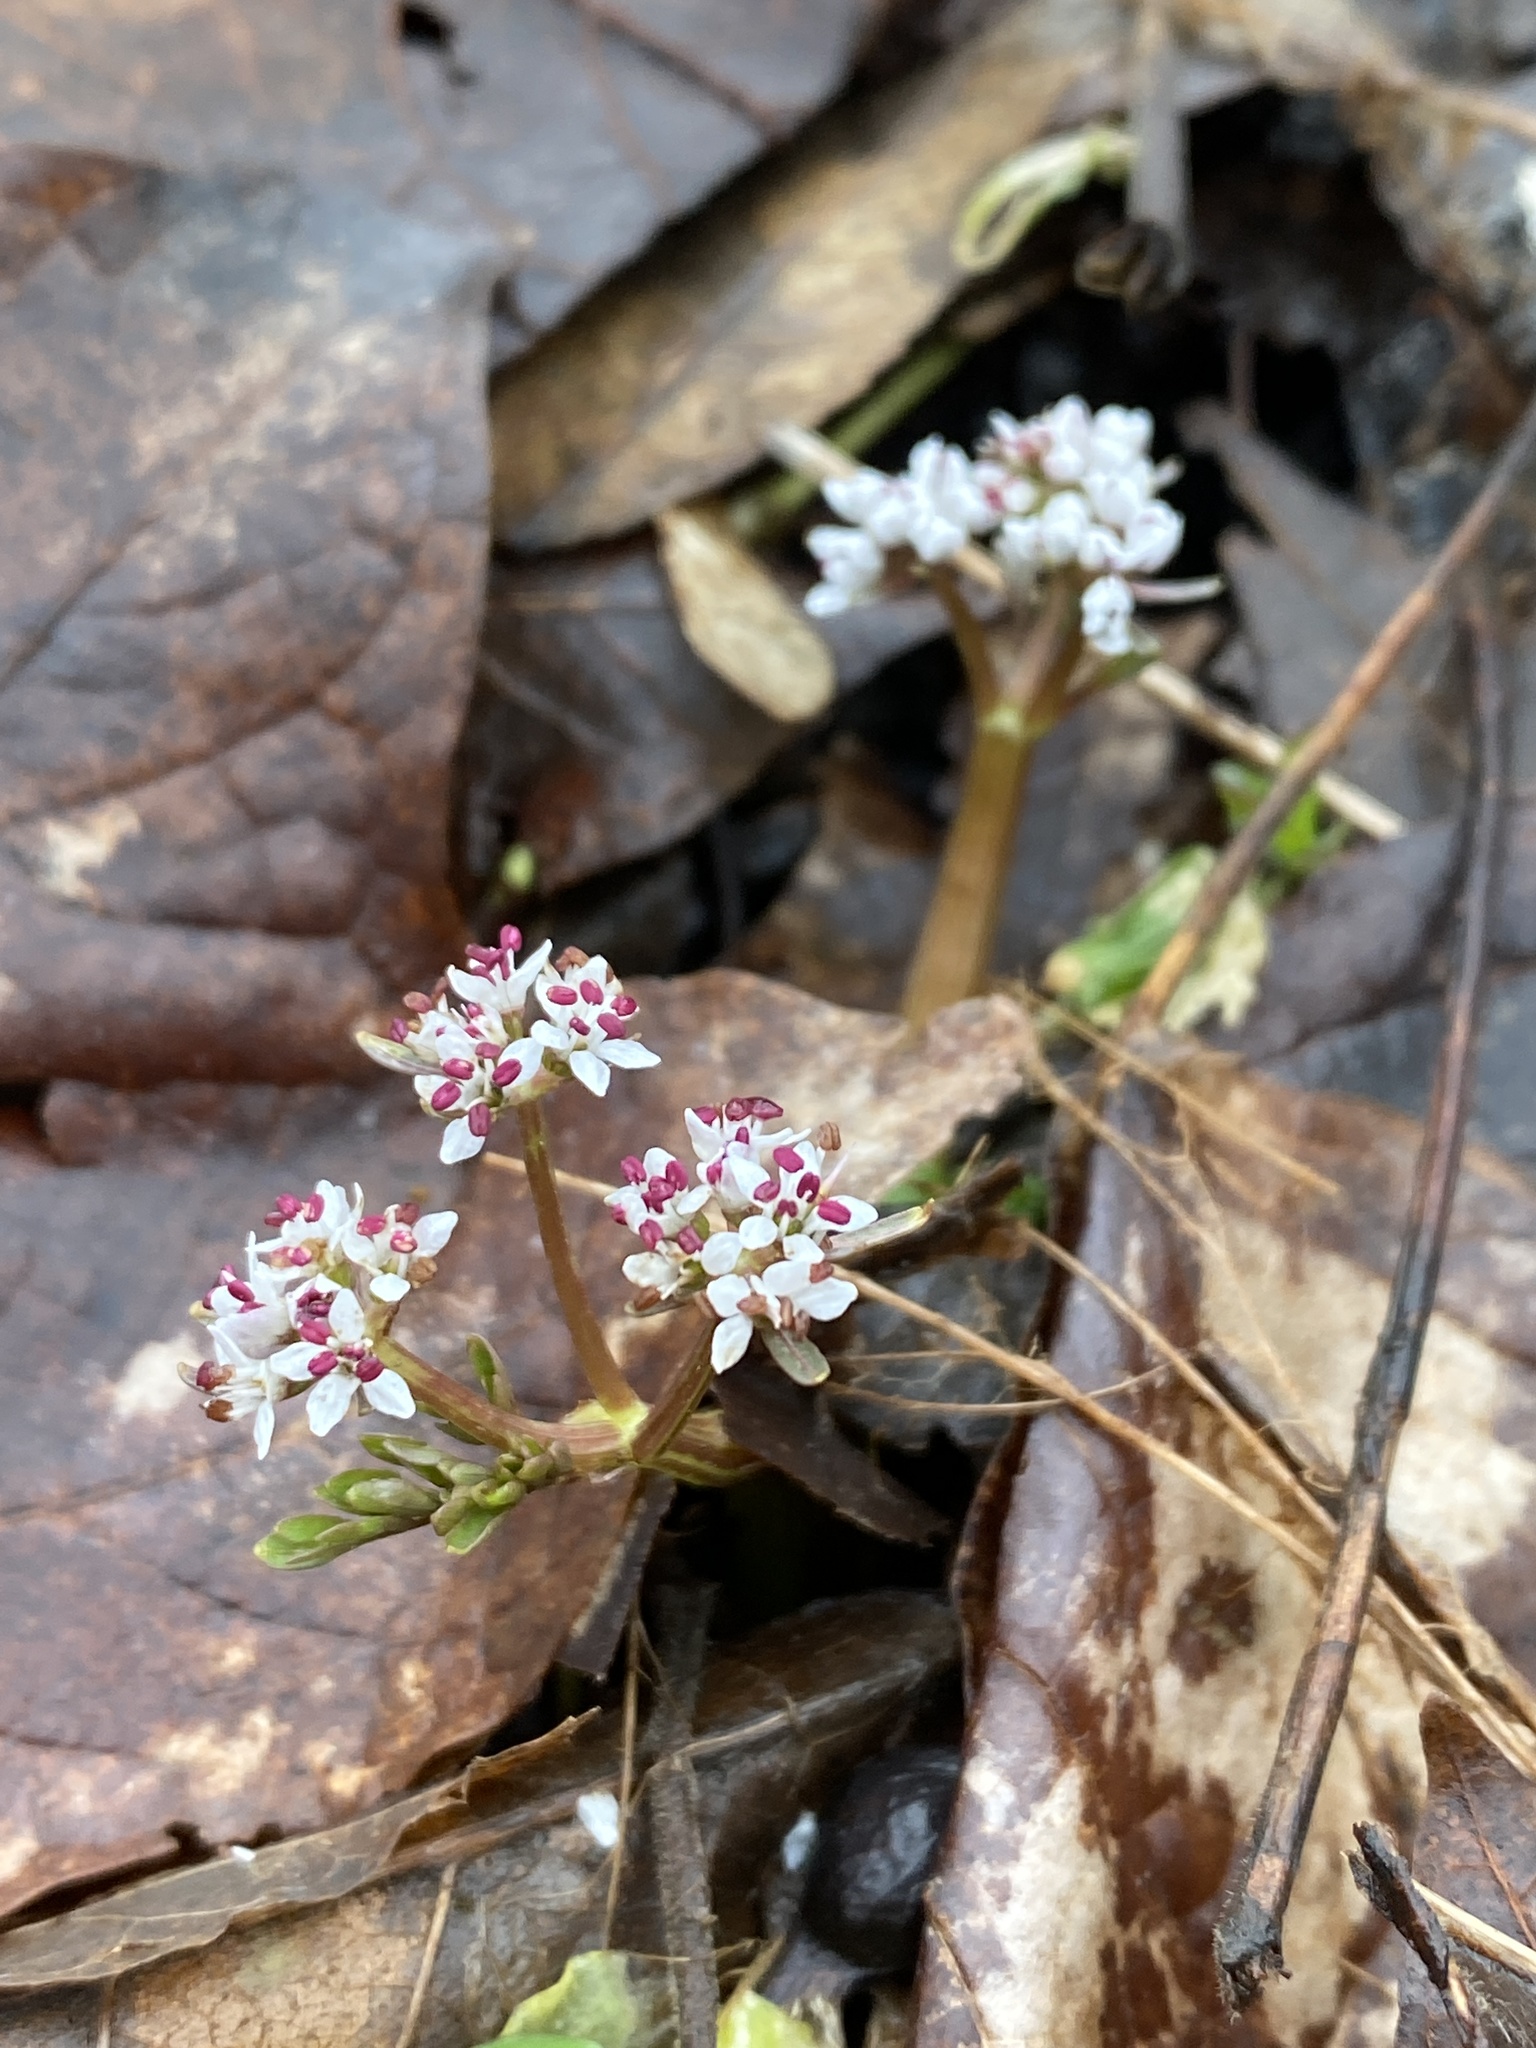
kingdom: Plantae
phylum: Tracheophyta
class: Magnoliopsida
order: Apiales
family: Apiaceae
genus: Erigenia
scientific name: Erigenia bulbosa
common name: Pepper-and-salt
